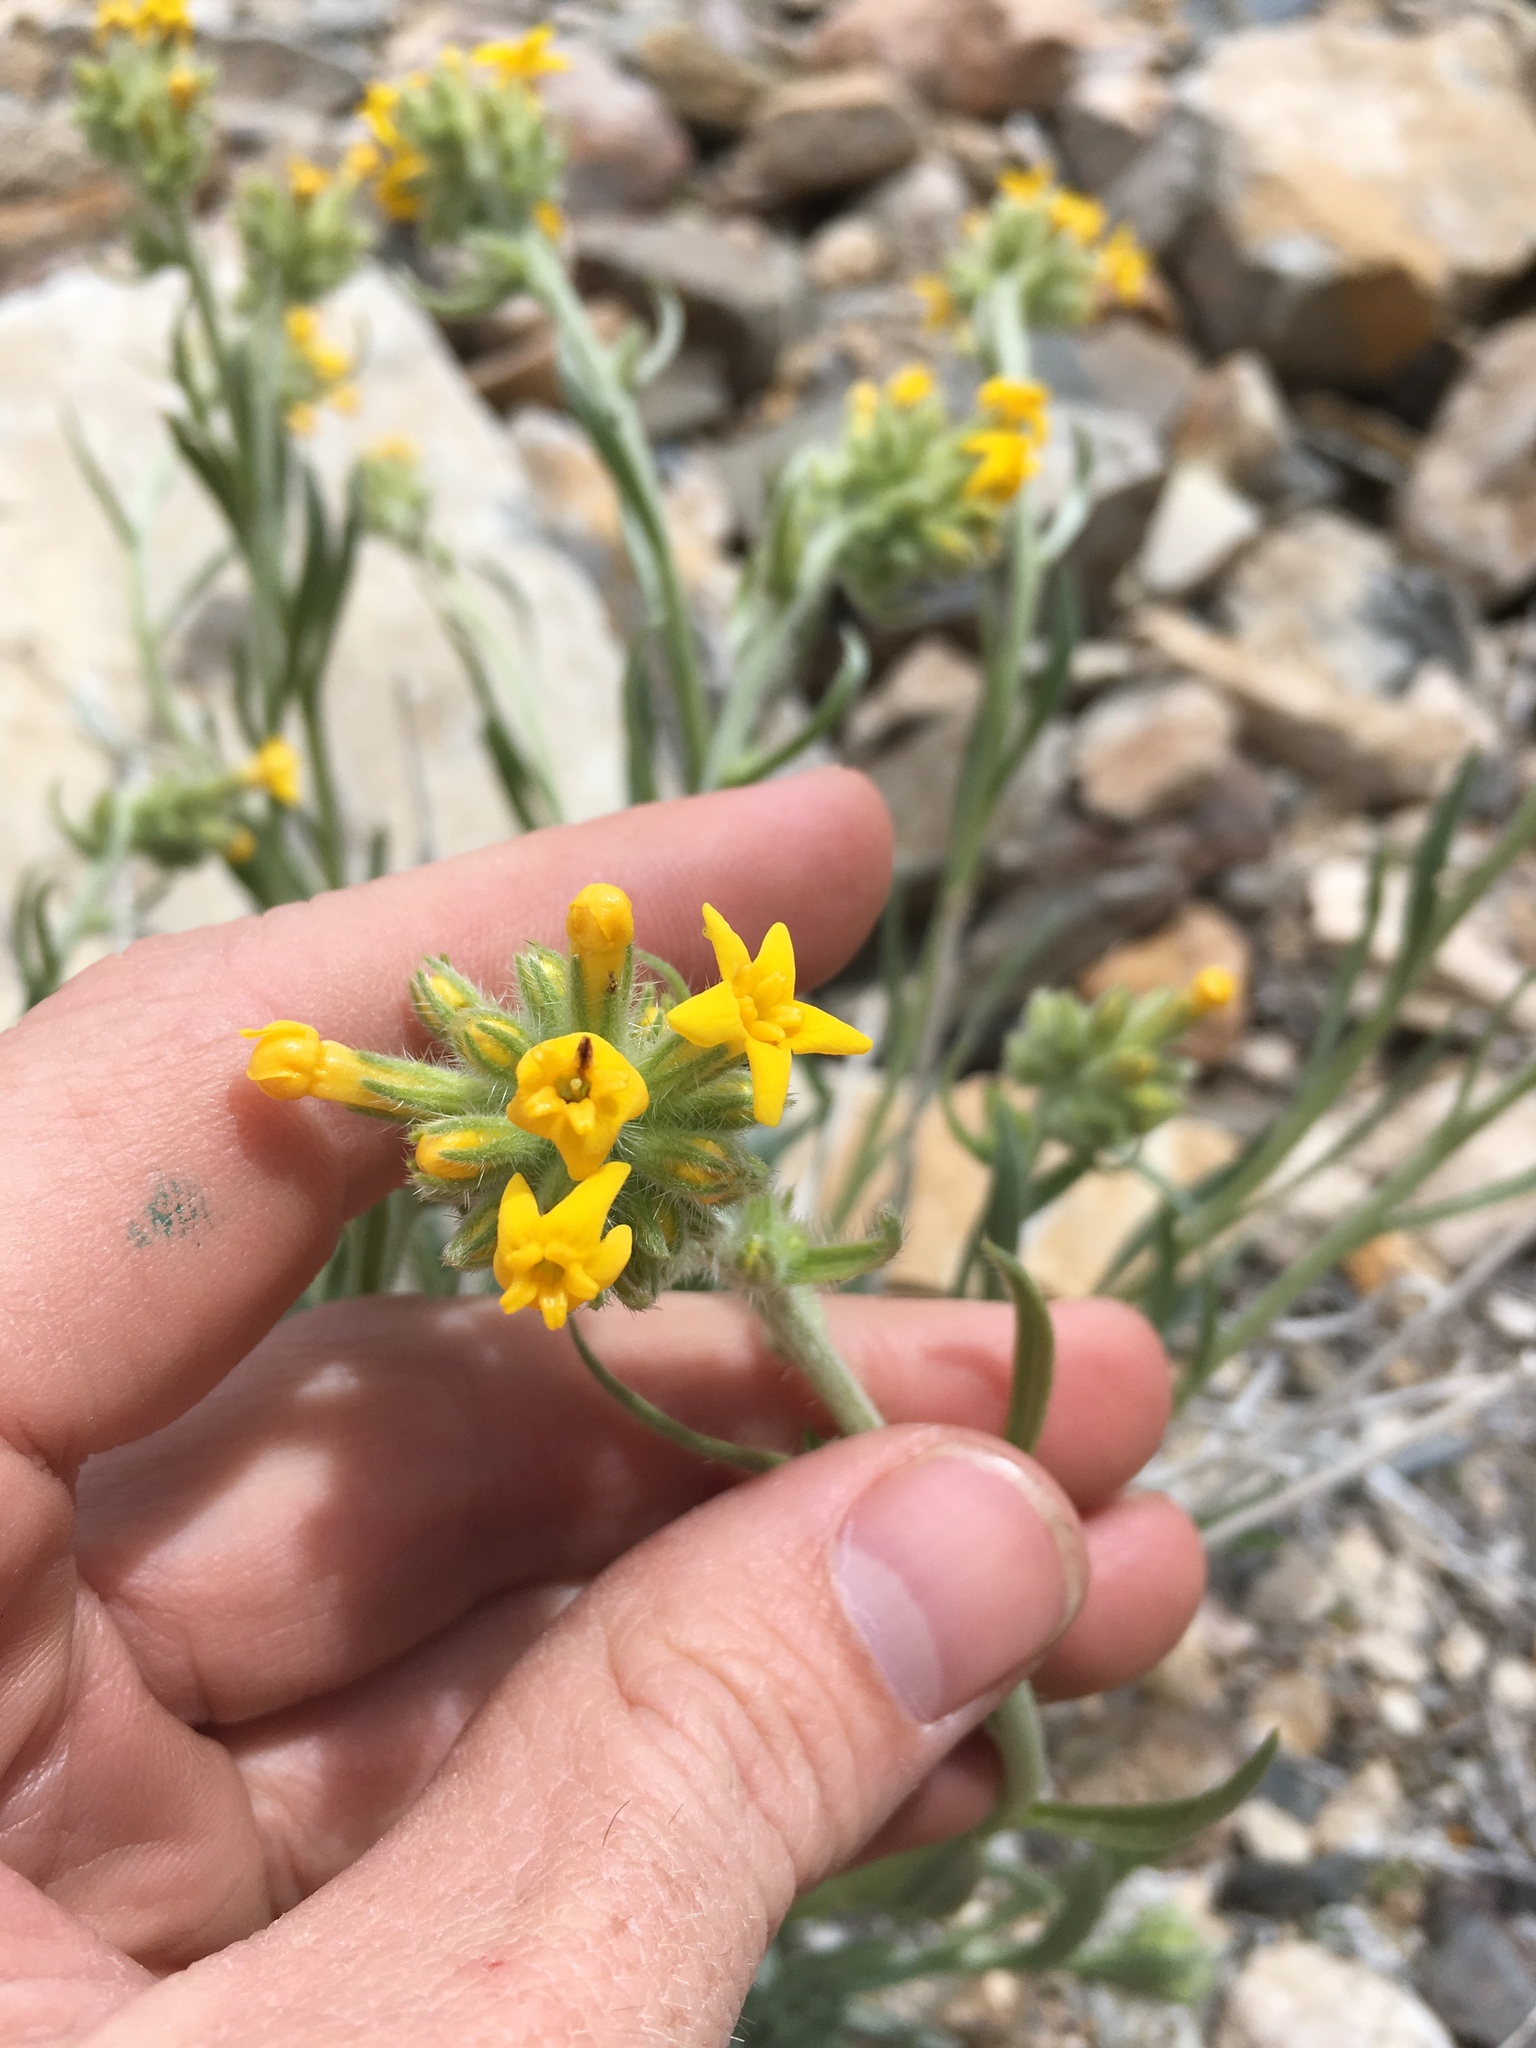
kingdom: Plantae
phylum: Tracheophyta
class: Magnoliopsida
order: Boraginales
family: Boraginaceae
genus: Oreocarya
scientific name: Oreocarya confertiflora
